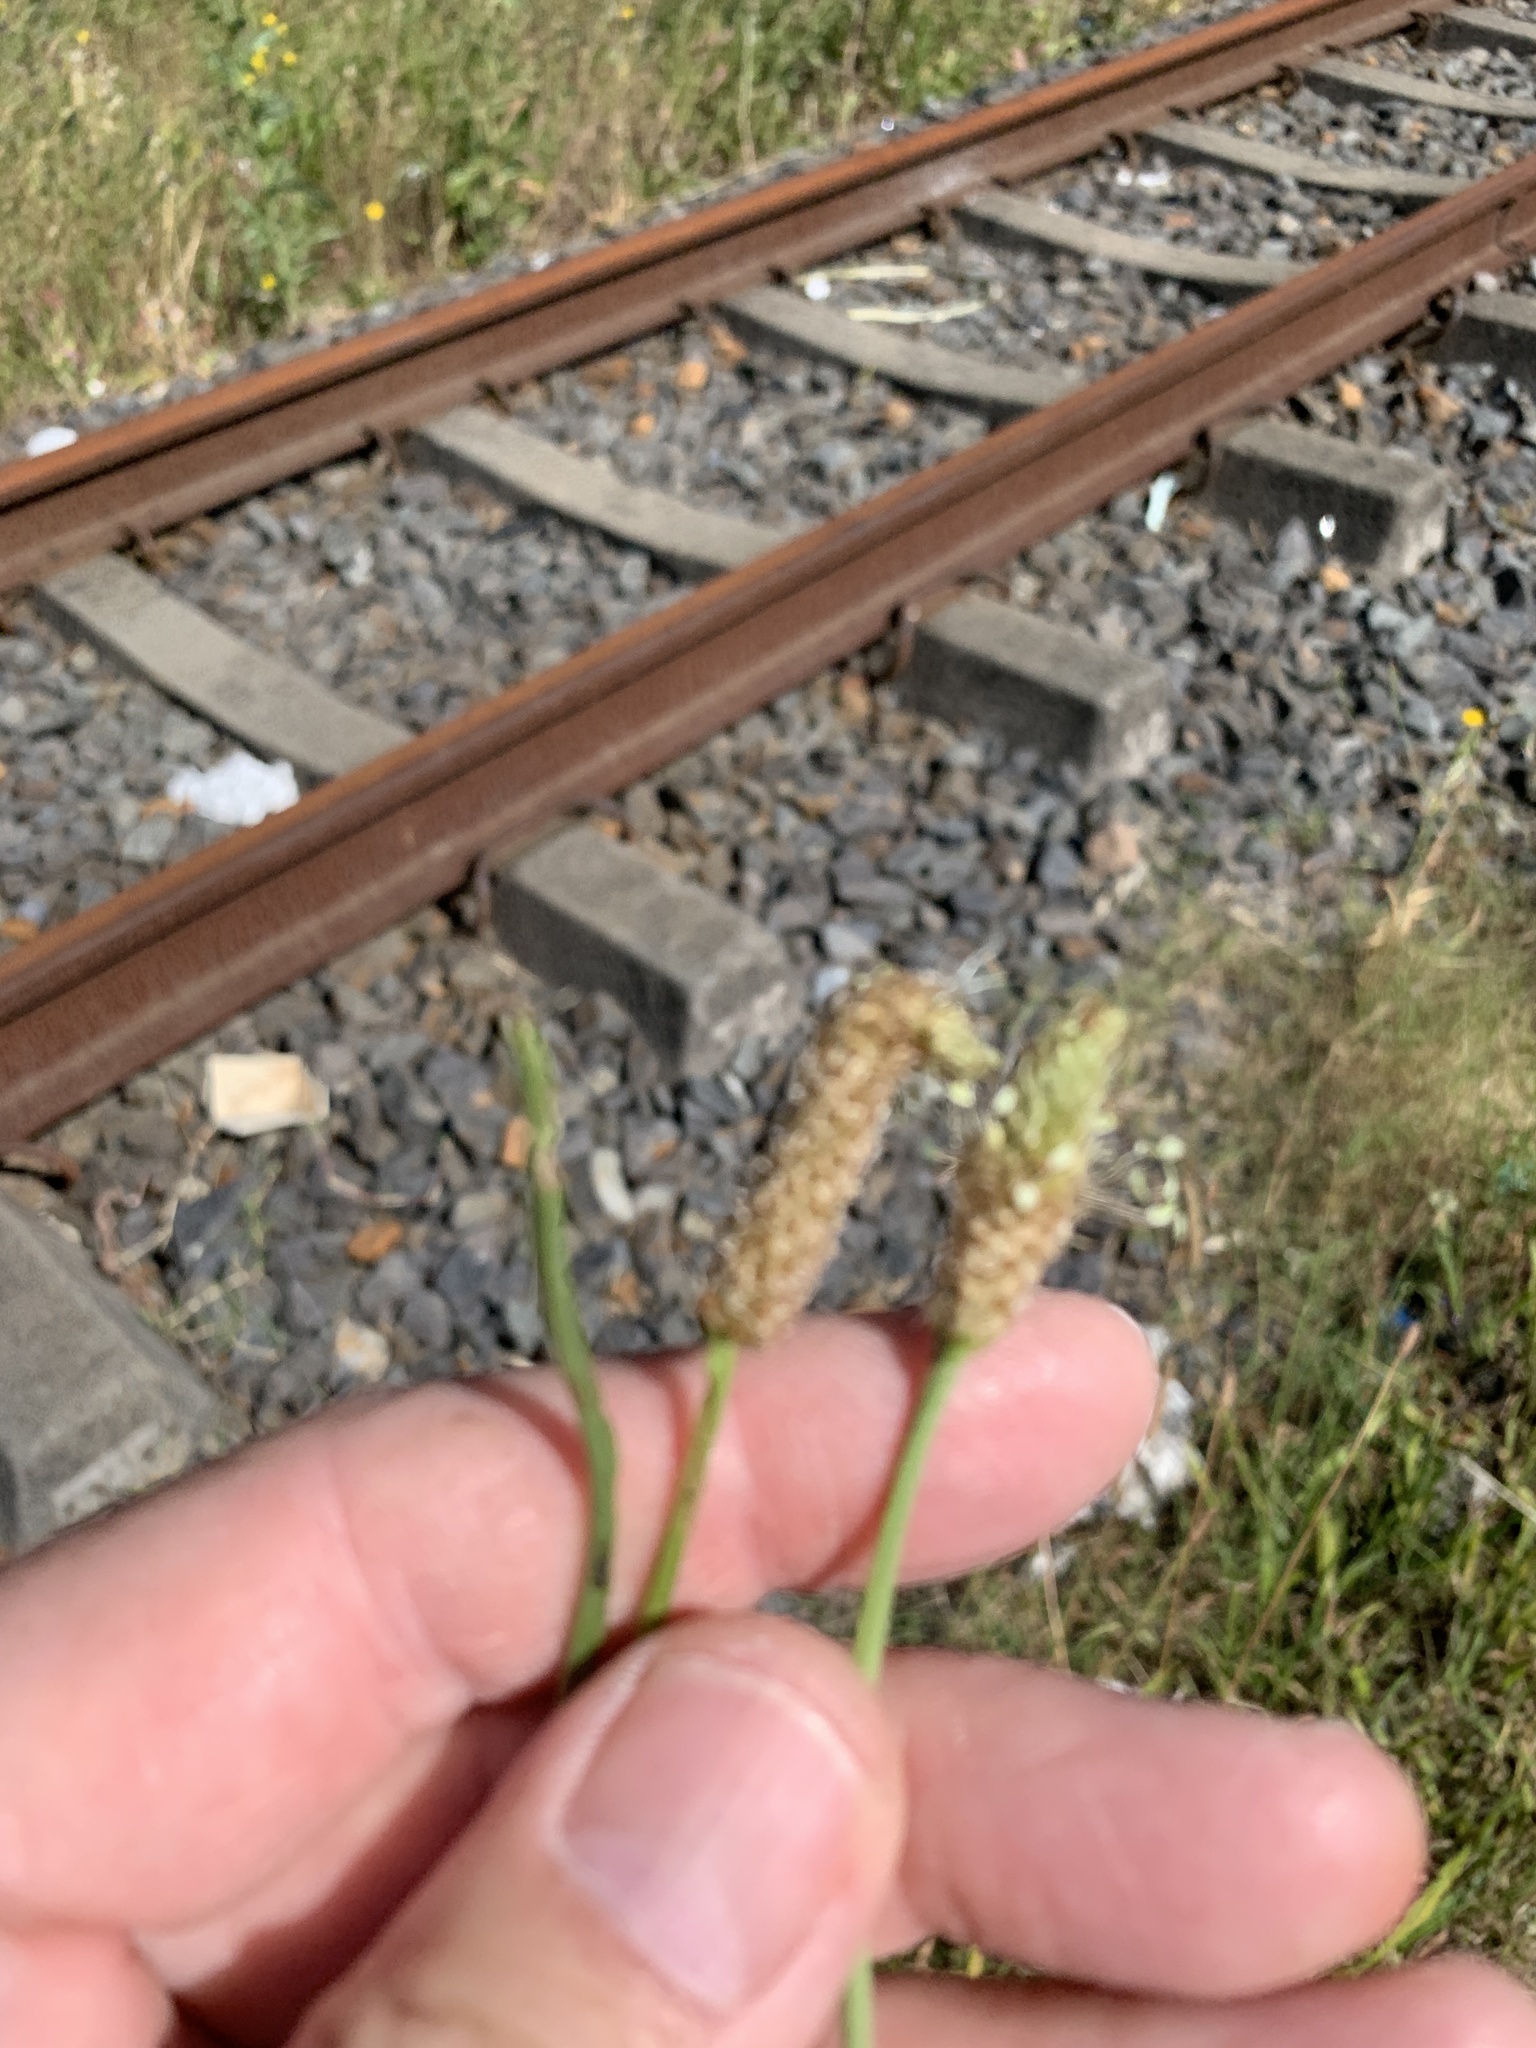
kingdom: Plantae
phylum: Tracheophyta
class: Magnoliopsida
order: Lamiales
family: Plantaginaceae
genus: Plantago
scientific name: Plantago lanceolata
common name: Ribwort plantain
